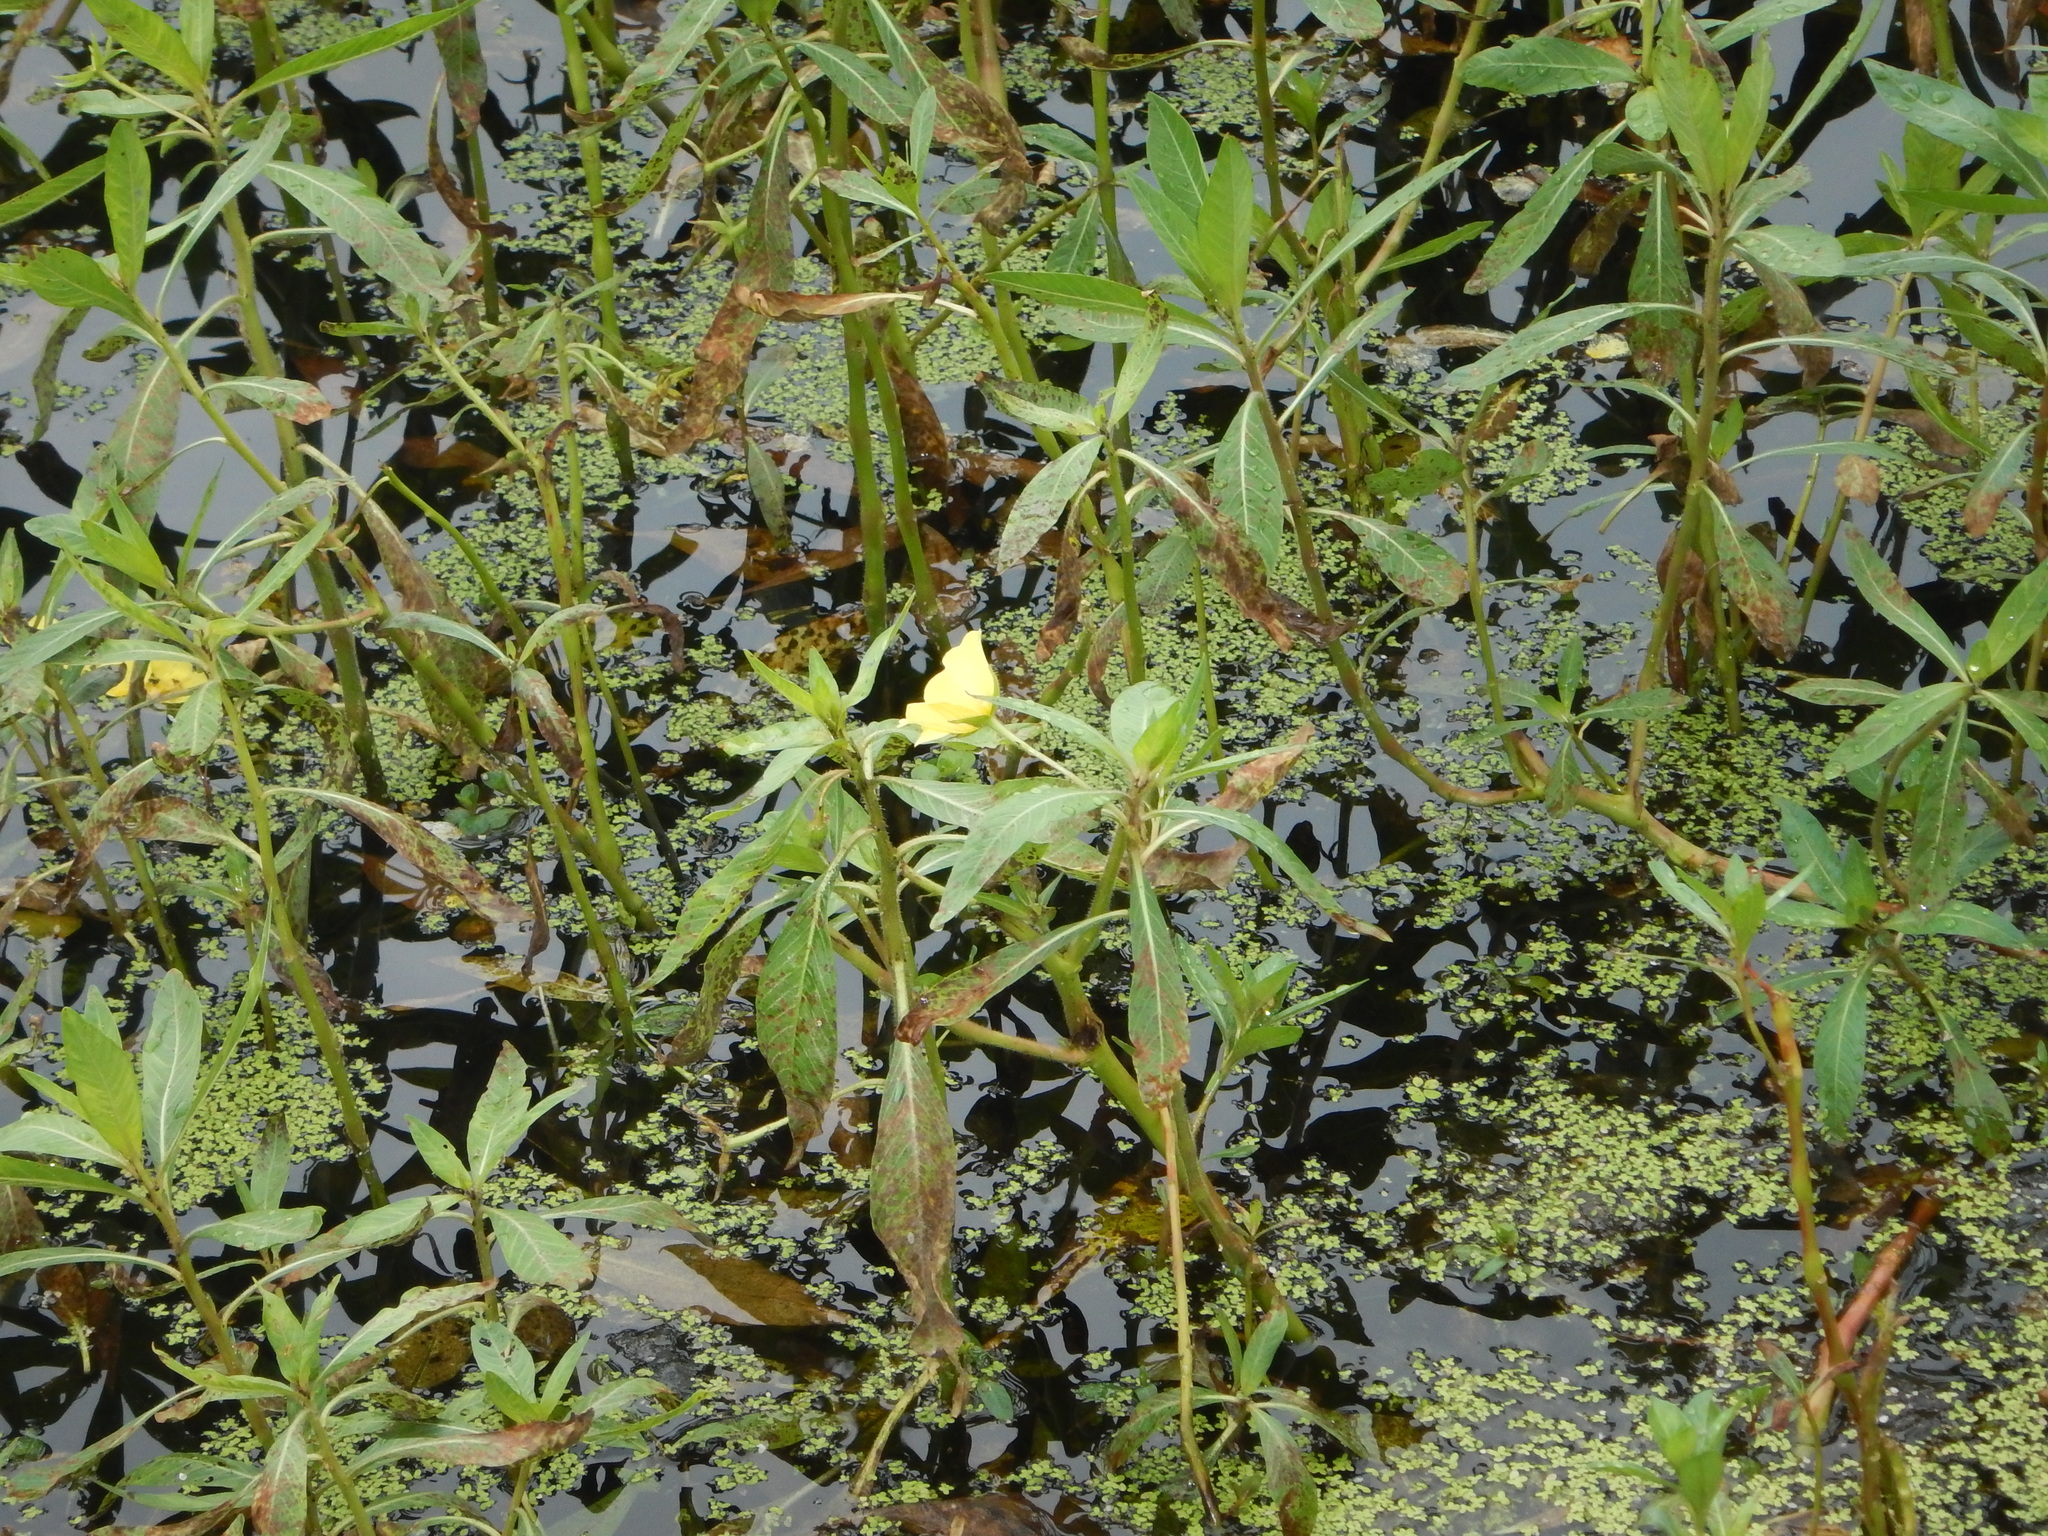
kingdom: Plantae
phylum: Tracheophyta
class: Magnoliopsida
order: Myrtales
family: Onagraceae
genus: Ludwigia
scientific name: Ludwigia hexapetala
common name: Water-primrose
